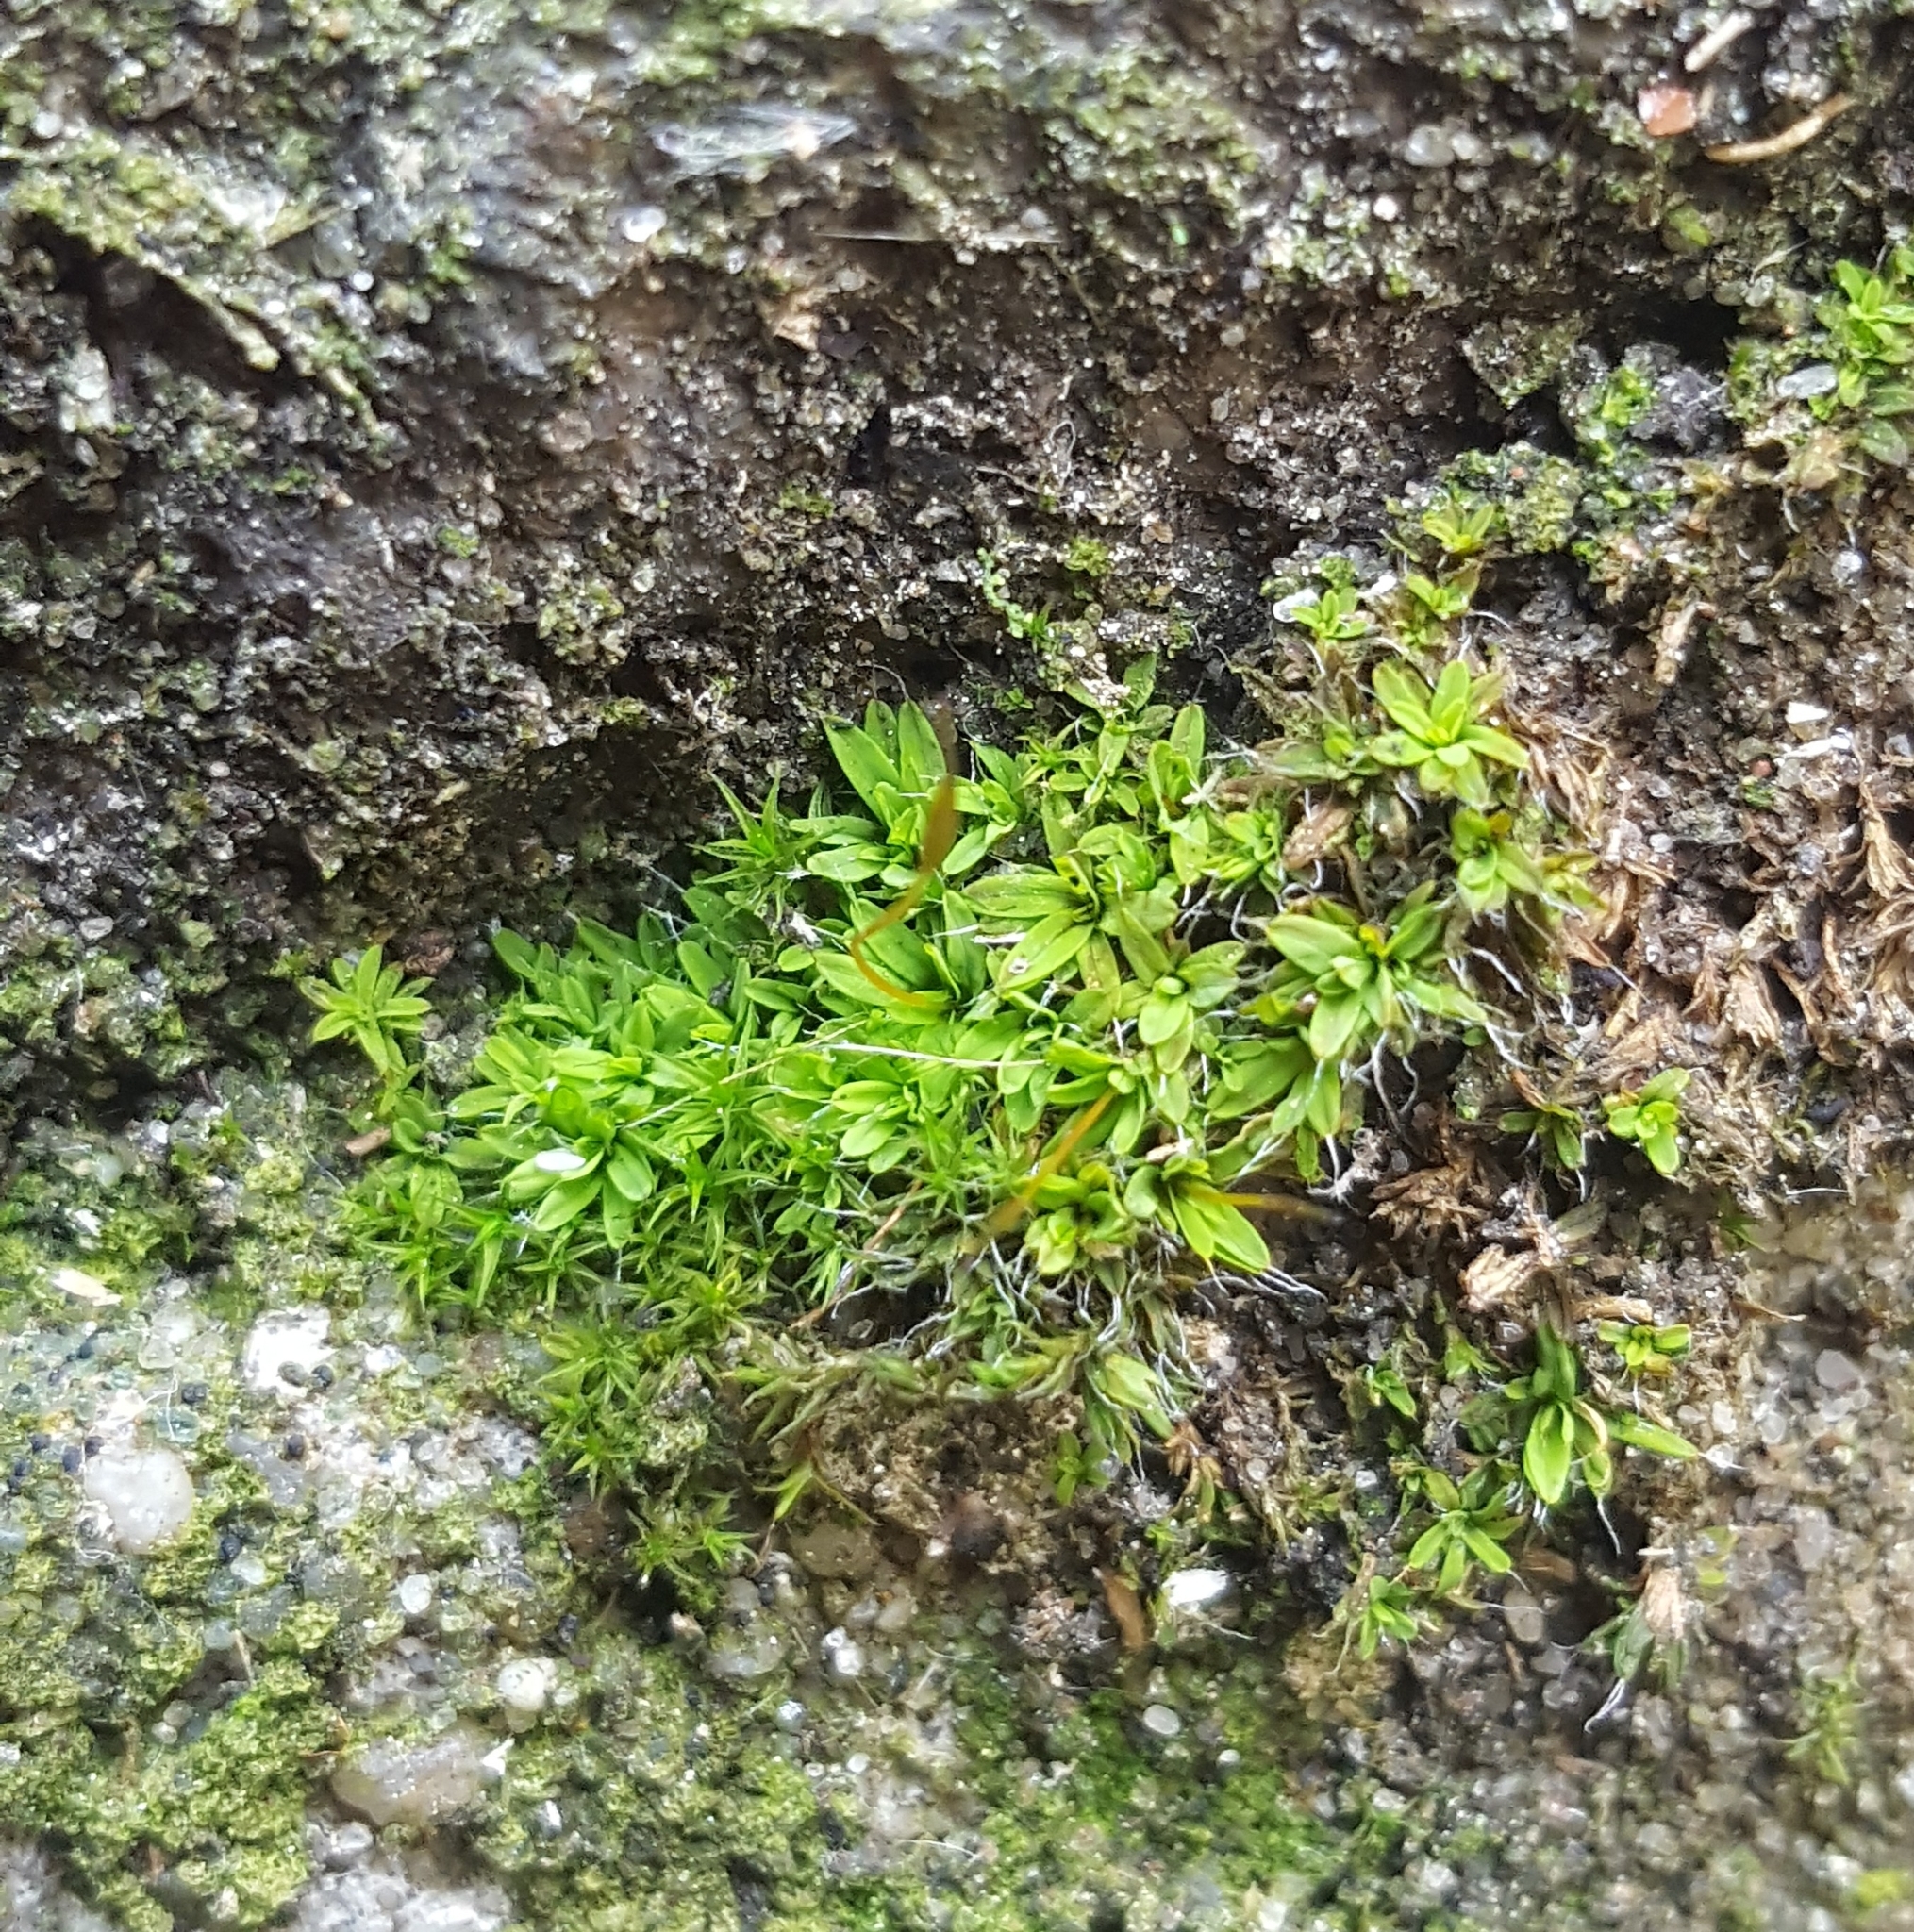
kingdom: Plantae
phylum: Bryophyta
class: Bryopsida
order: Pottiales
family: Pottiaceae
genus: Tortula
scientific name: Tortula muralis
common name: Wall screw-moss
